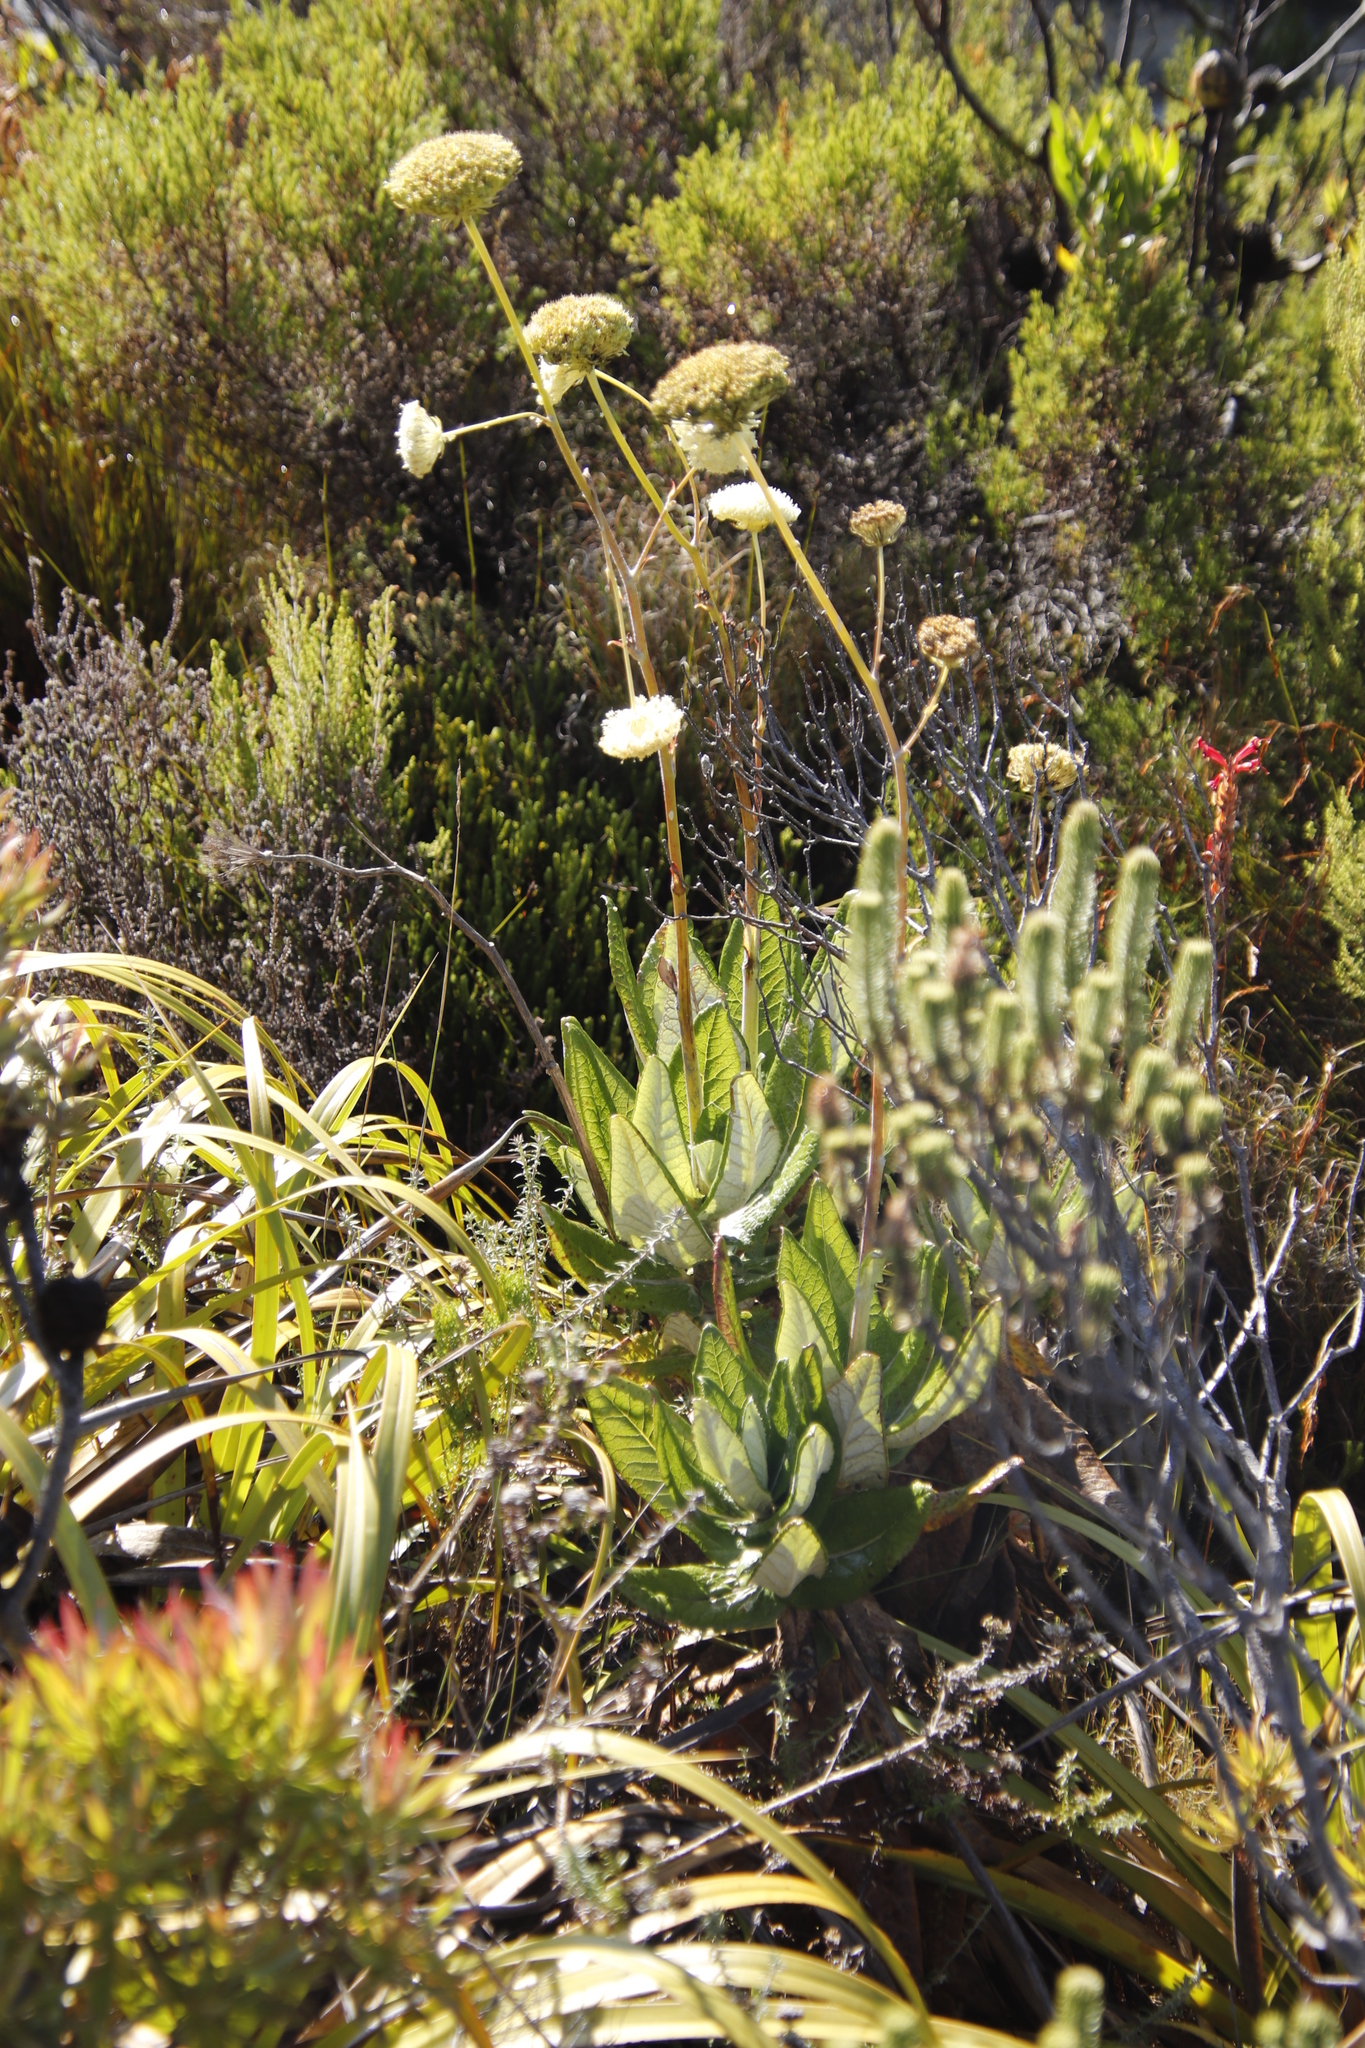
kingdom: Plantae
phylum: Tracheophyta
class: Magnoliopsida
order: Apiales
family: Apiaceae
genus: Hermas
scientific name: Hermas villosa
